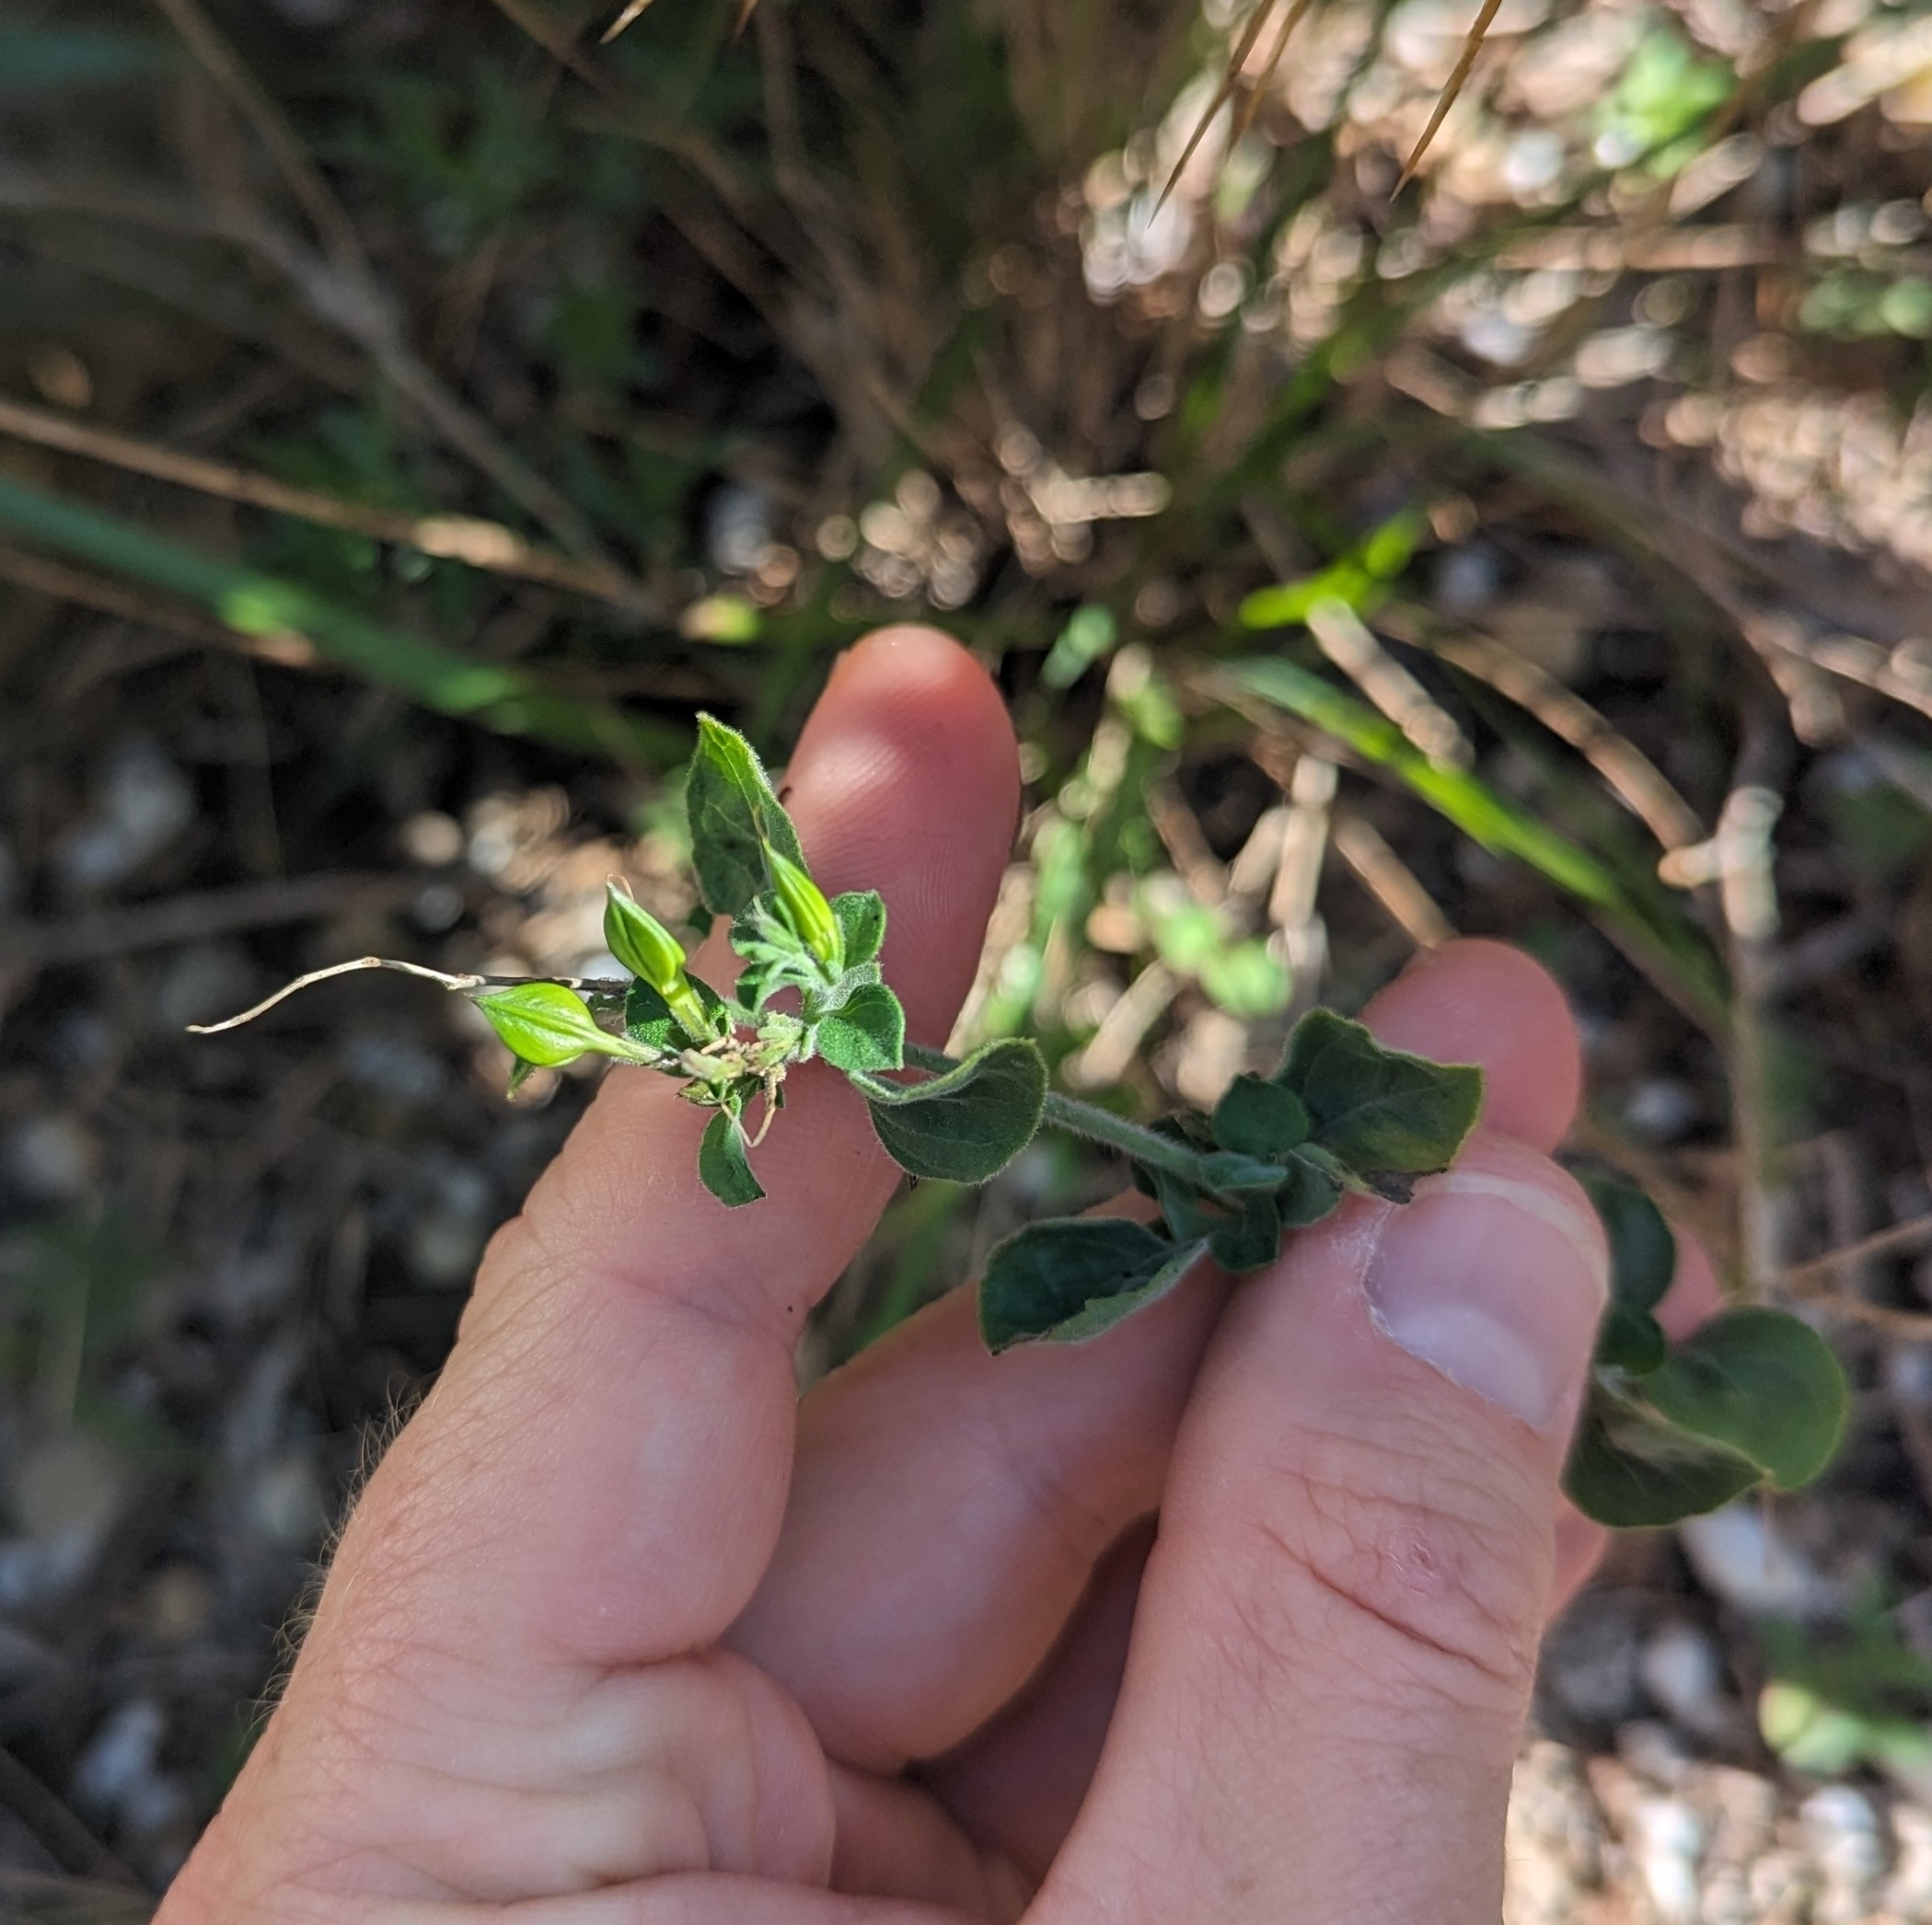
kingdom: Plantae
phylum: Tracheophyta
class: Magnoliopsida
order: Lamiales
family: Acanthaceae
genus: Carlowrightia
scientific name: Carlowrightia torreyana
